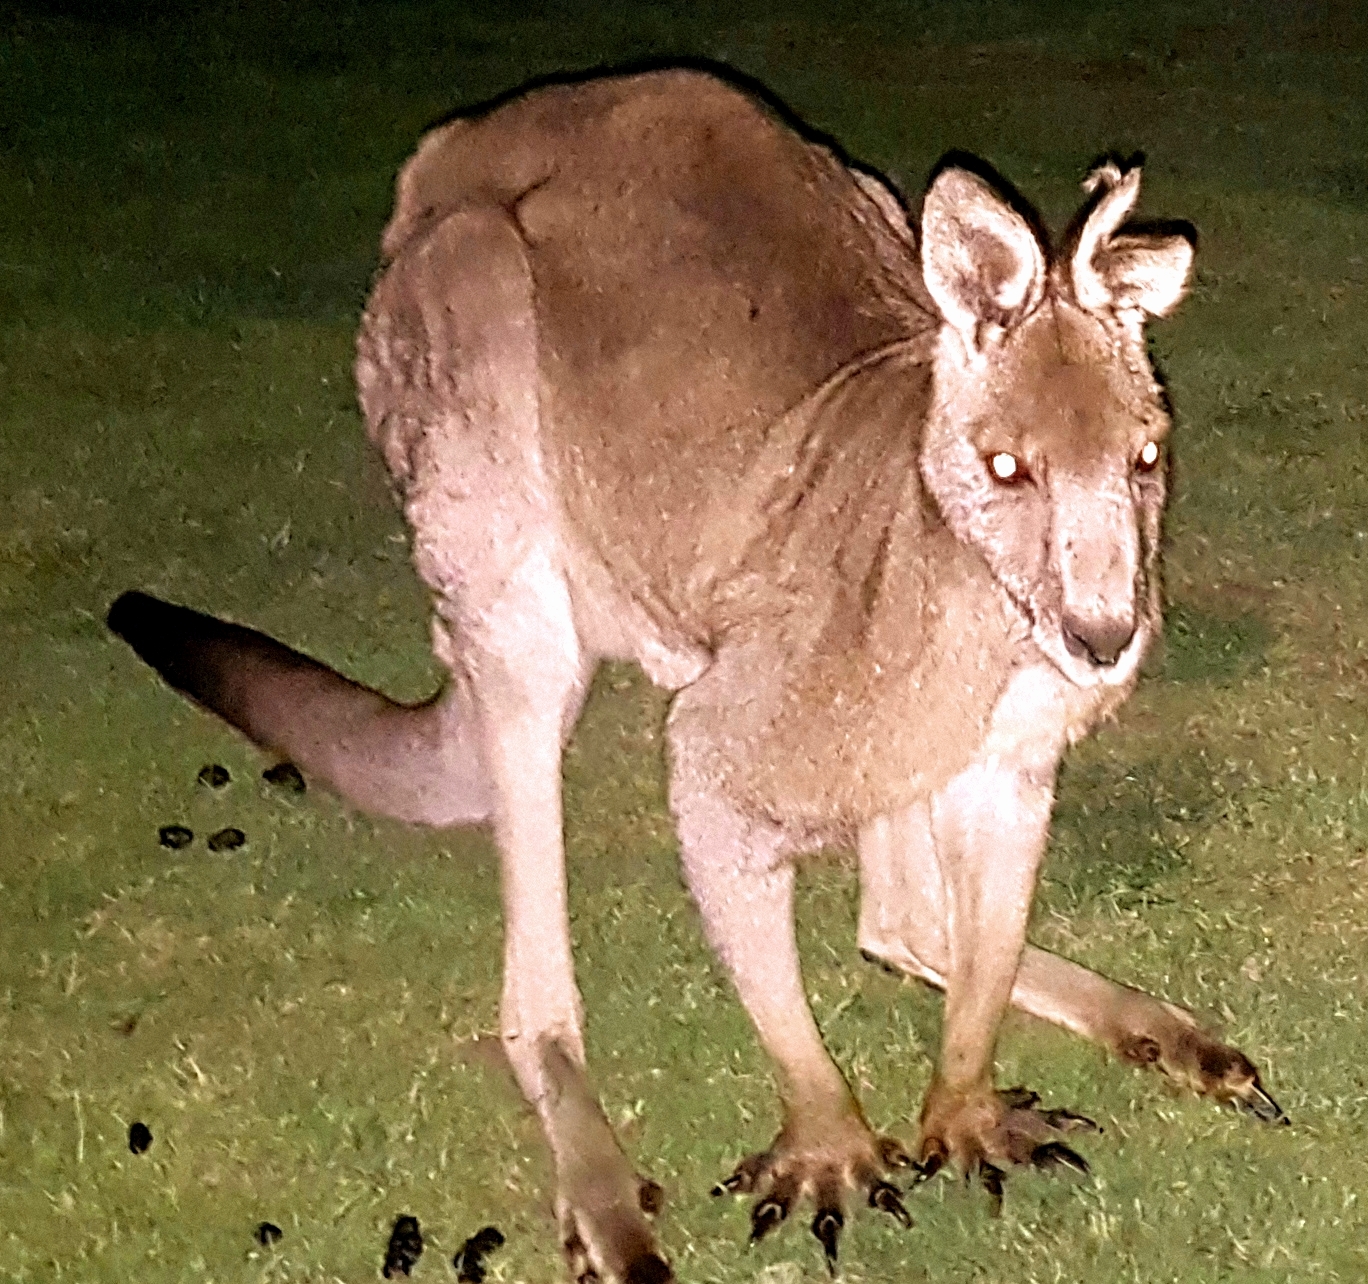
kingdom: Animalia
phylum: Chordata
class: Mammalia
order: Diprotodontia
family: Macropodidae
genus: Macropus
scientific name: Macropus giganteus
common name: Eastern grey kangaroo
